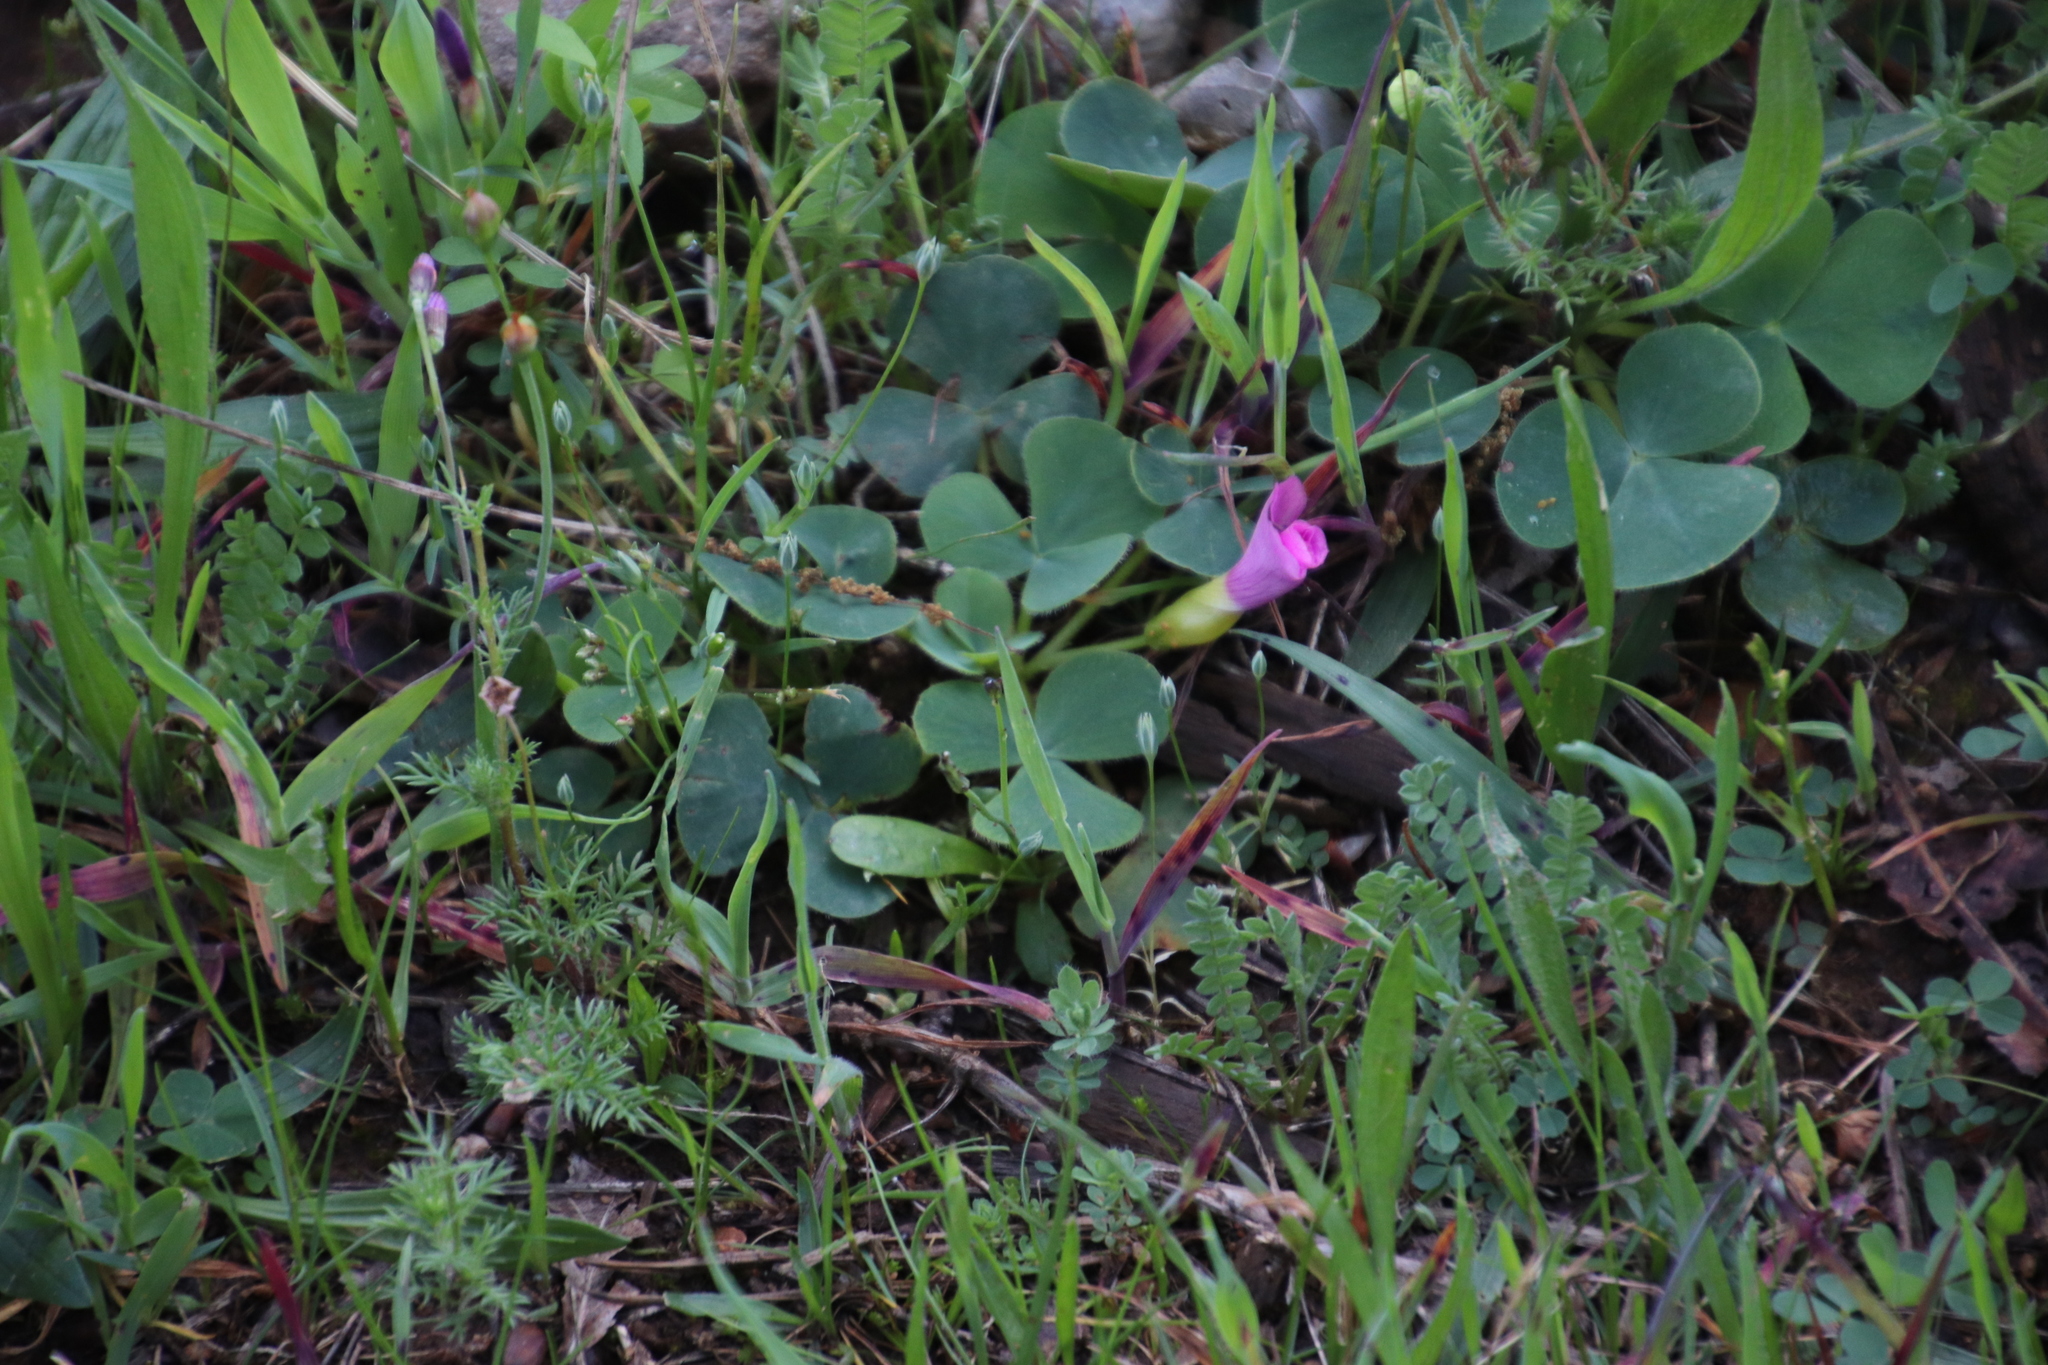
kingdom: Plantae
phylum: Tracheophyta
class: Magnoliopsida
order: Oxalidales
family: Oxalidaceae
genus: Oxalis
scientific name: Oxalis purpurea
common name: Purple woodsorrel
